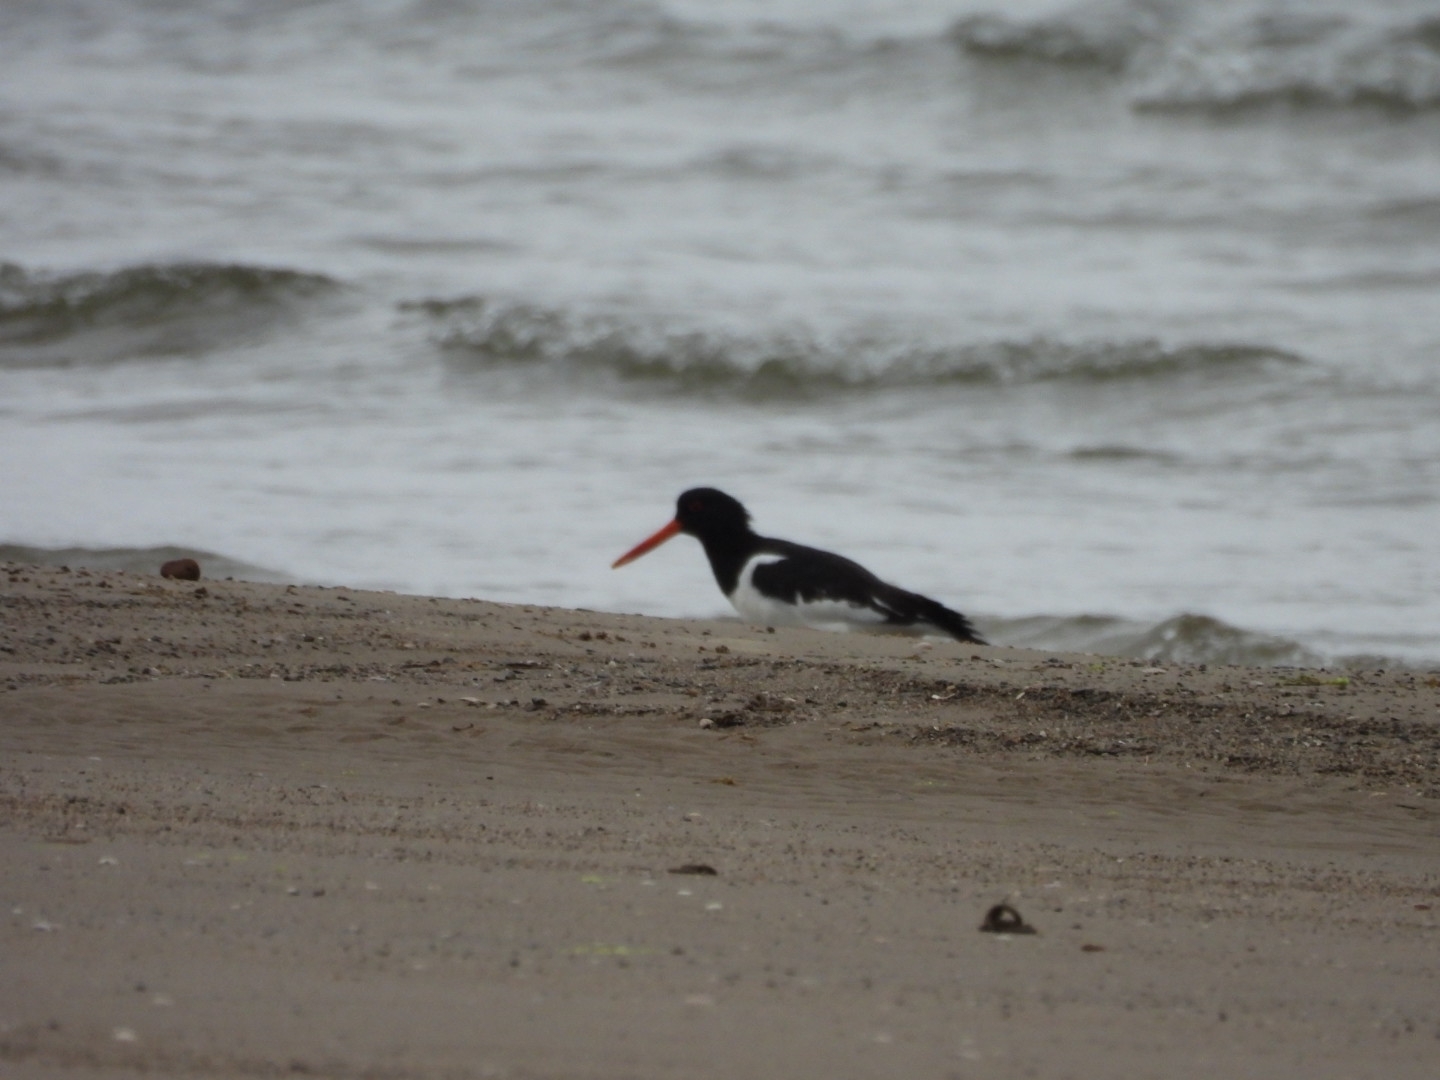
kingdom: Animalia
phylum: Chordata
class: Aves
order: Charadriiformes
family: Haematopodidae
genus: Haematopus
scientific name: Haematopus ostralegus
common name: Eurasian oystercatcher
